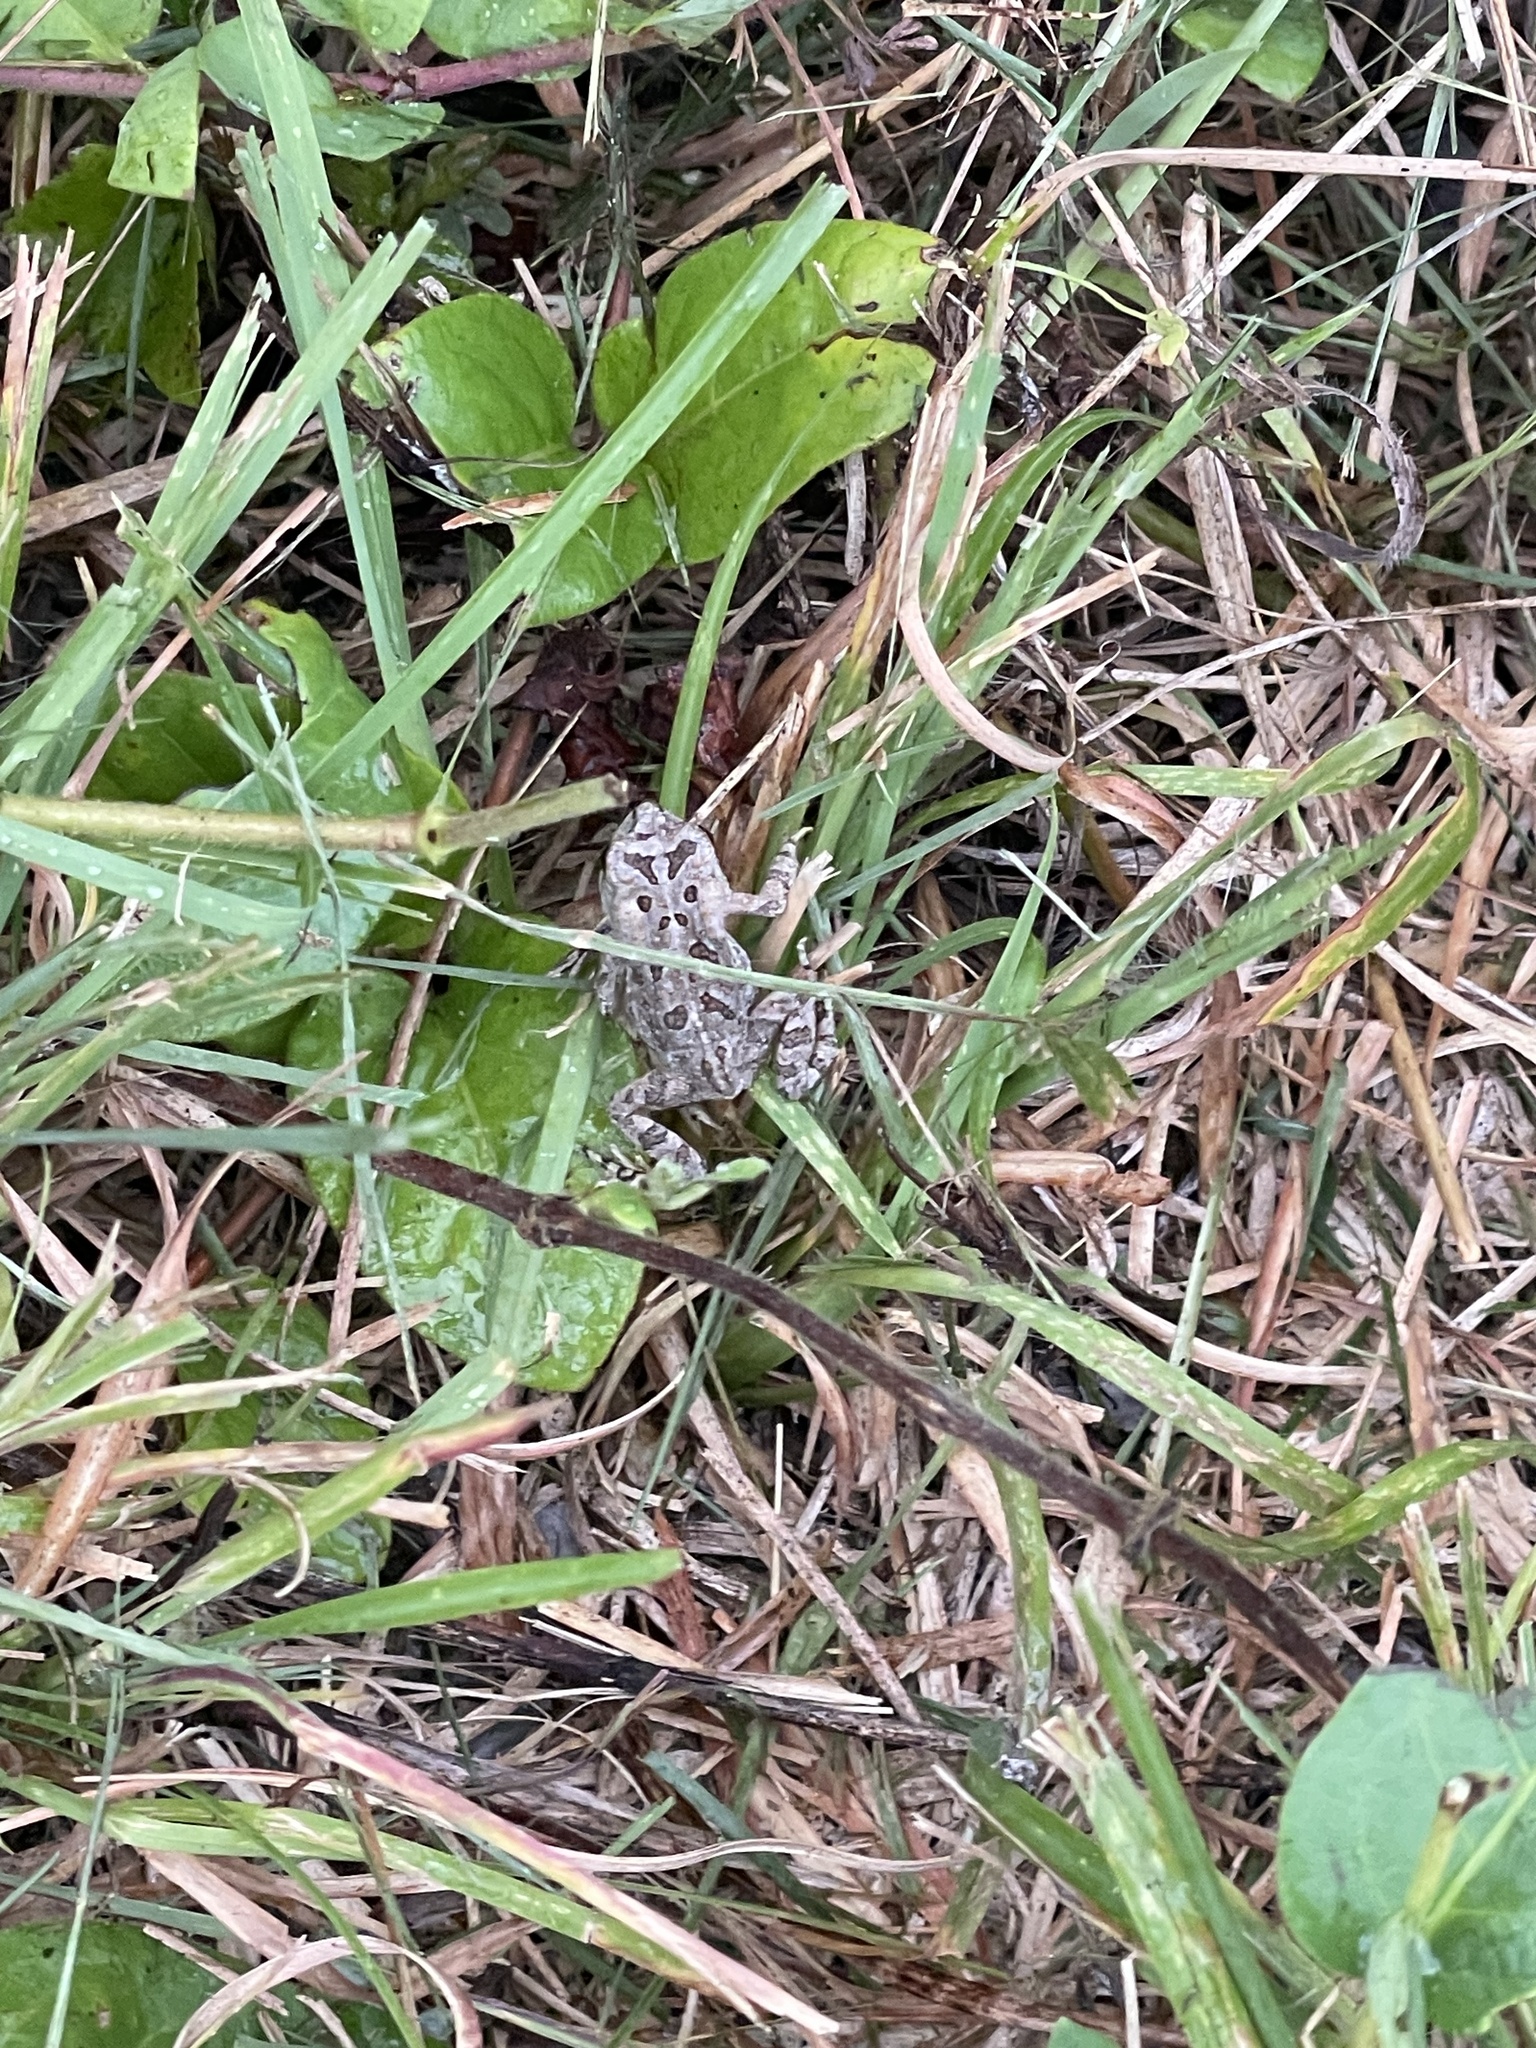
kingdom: Animalia
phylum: Chordata
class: Amphibia
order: Anura
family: Bufonidae
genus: Anaxyrus
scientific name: Anaxyrus fowleri
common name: Fowler's toad
